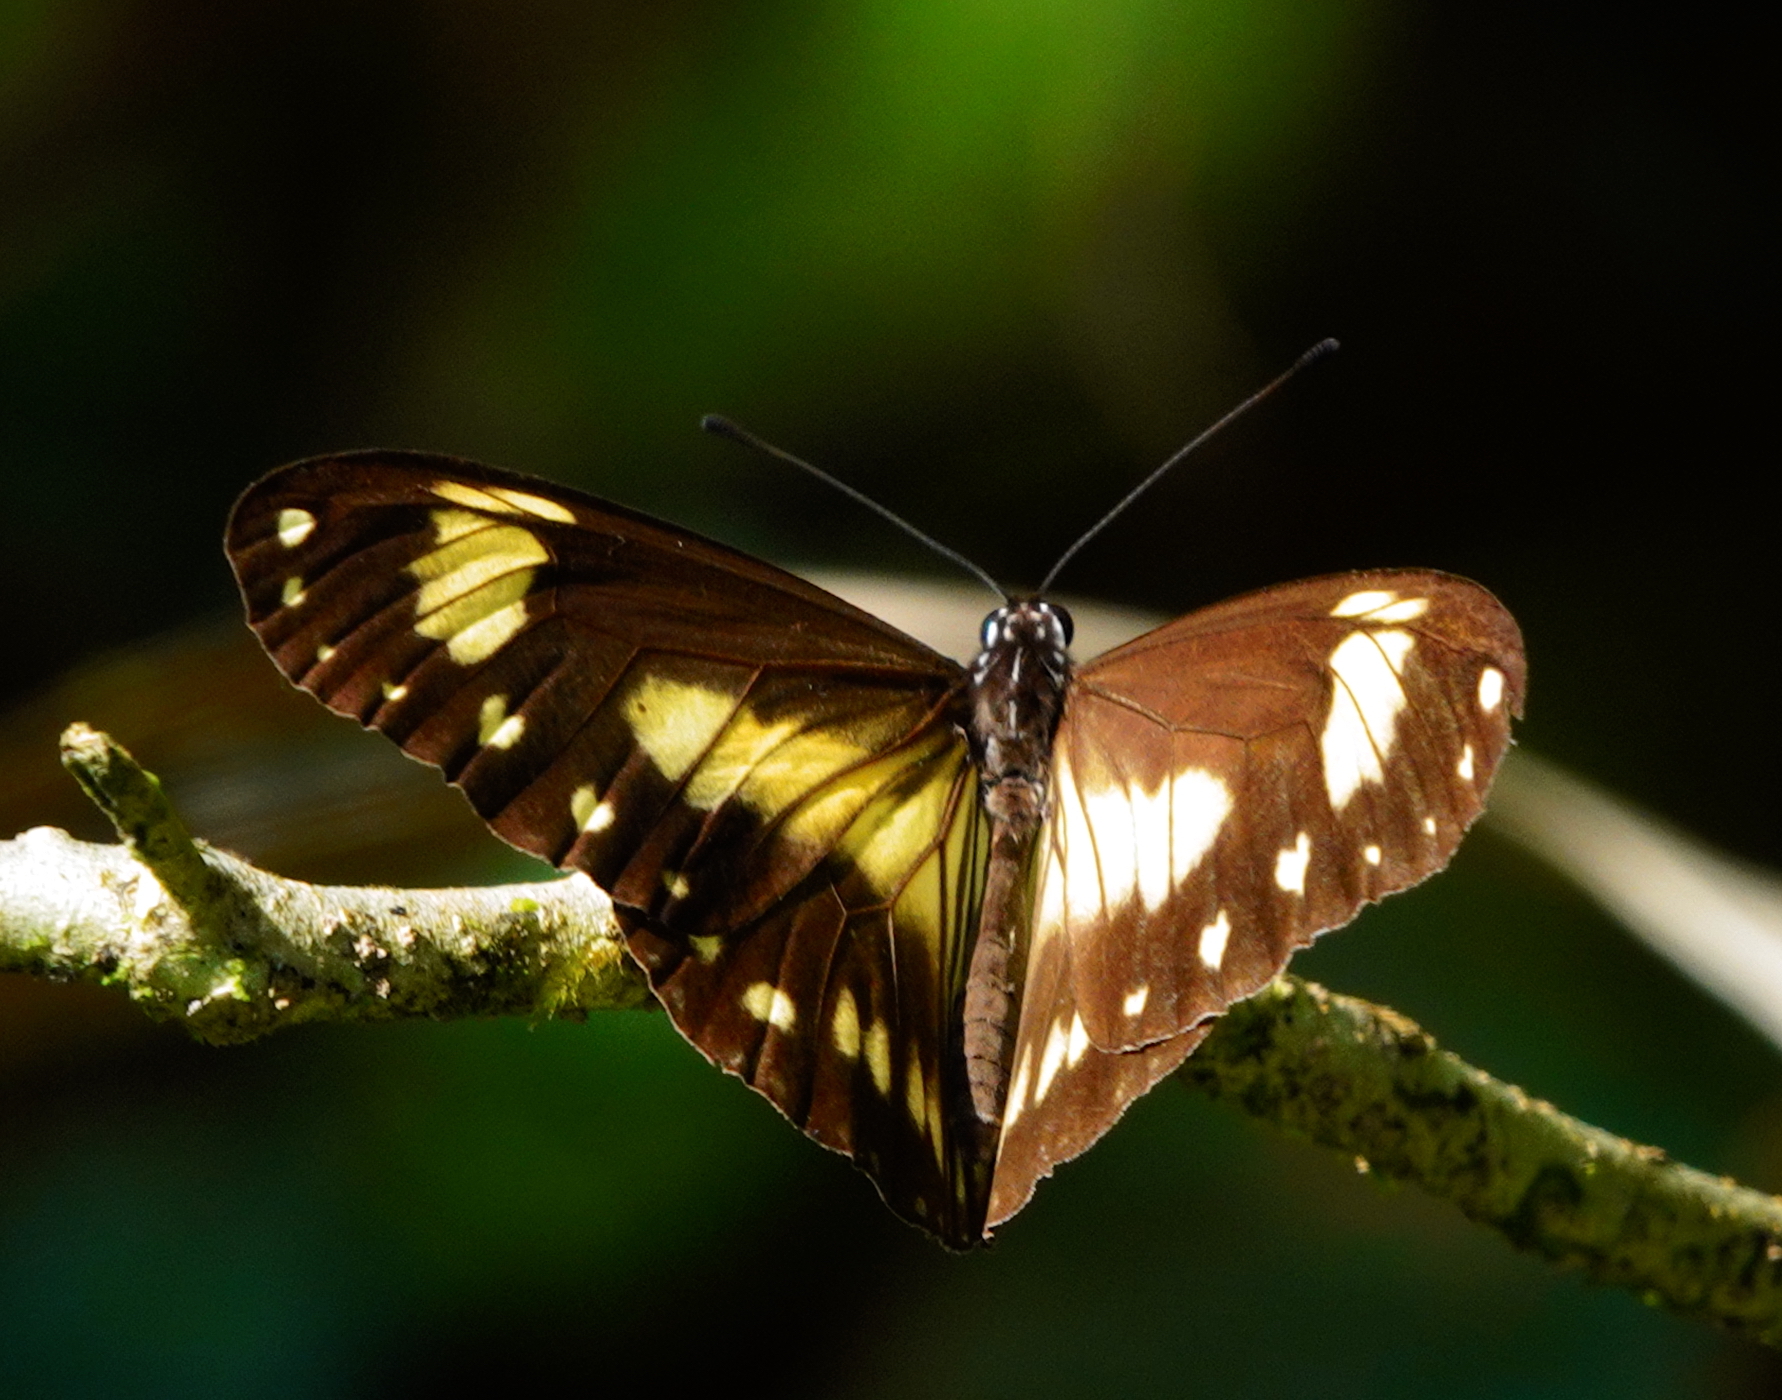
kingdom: Animalia
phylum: Arthropoda
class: Insecta
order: Lepidoptera
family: Nymphalidae
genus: Ideopsis
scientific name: Ideopsis klassika
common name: Seram small tree-nymph
